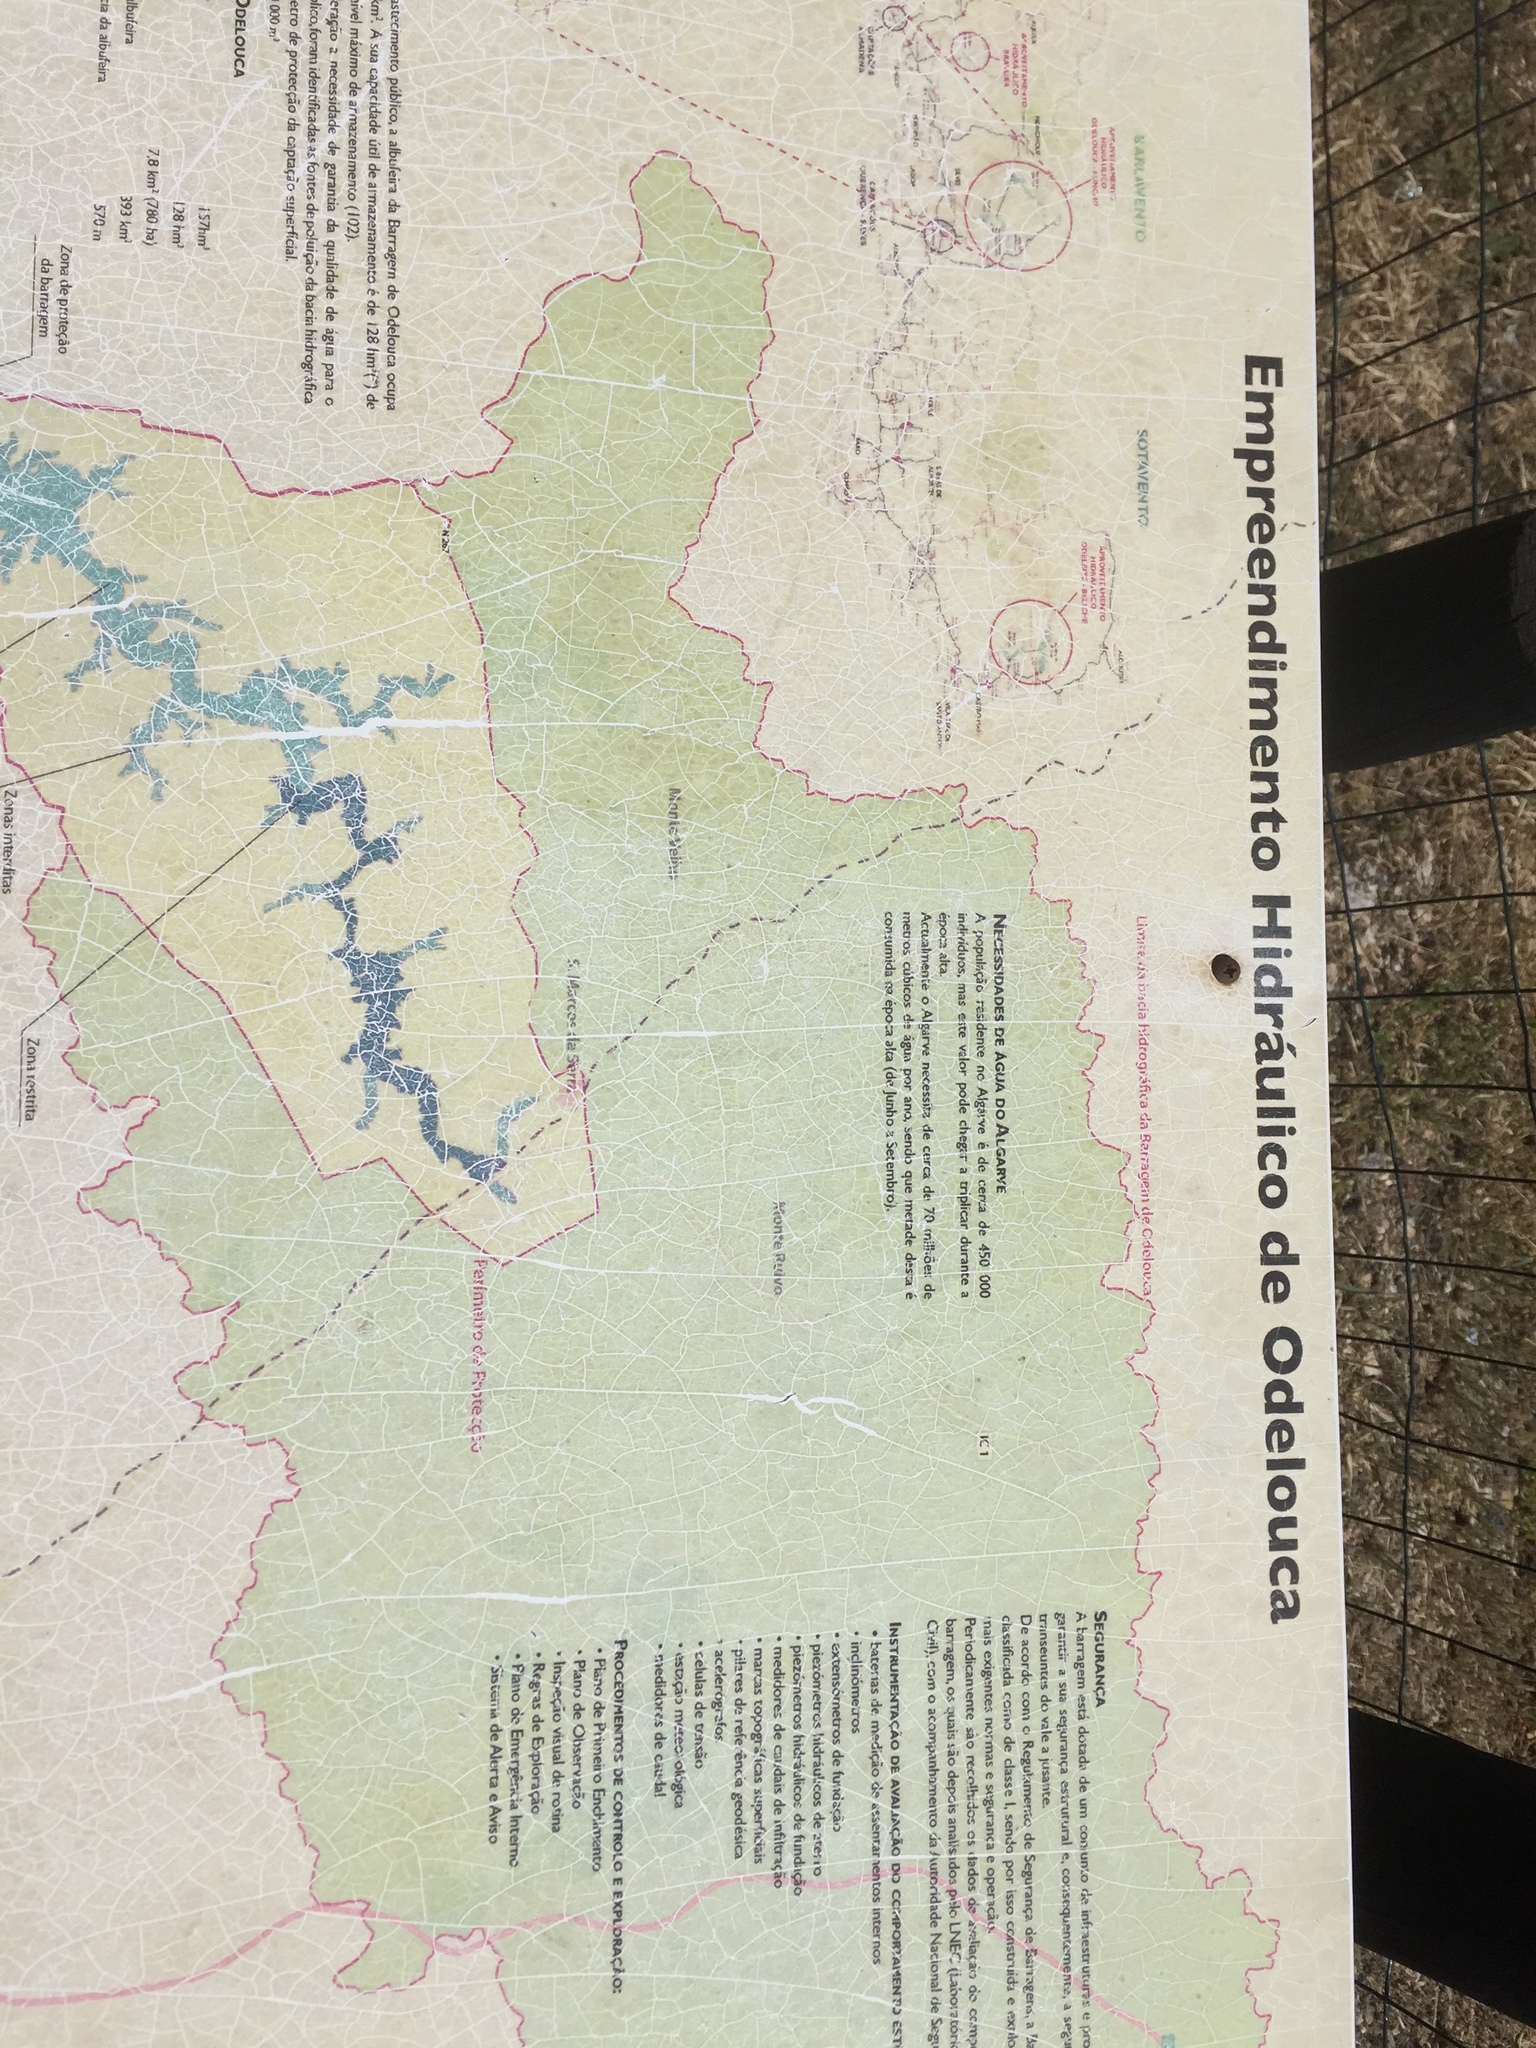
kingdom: Plantae
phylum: Tracheophyta
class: Magnoliopsida
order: Lamiales
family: Orobanchaceae
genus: Bellardia
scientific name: Bellardia trixago
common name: Mediterranean lineseed
